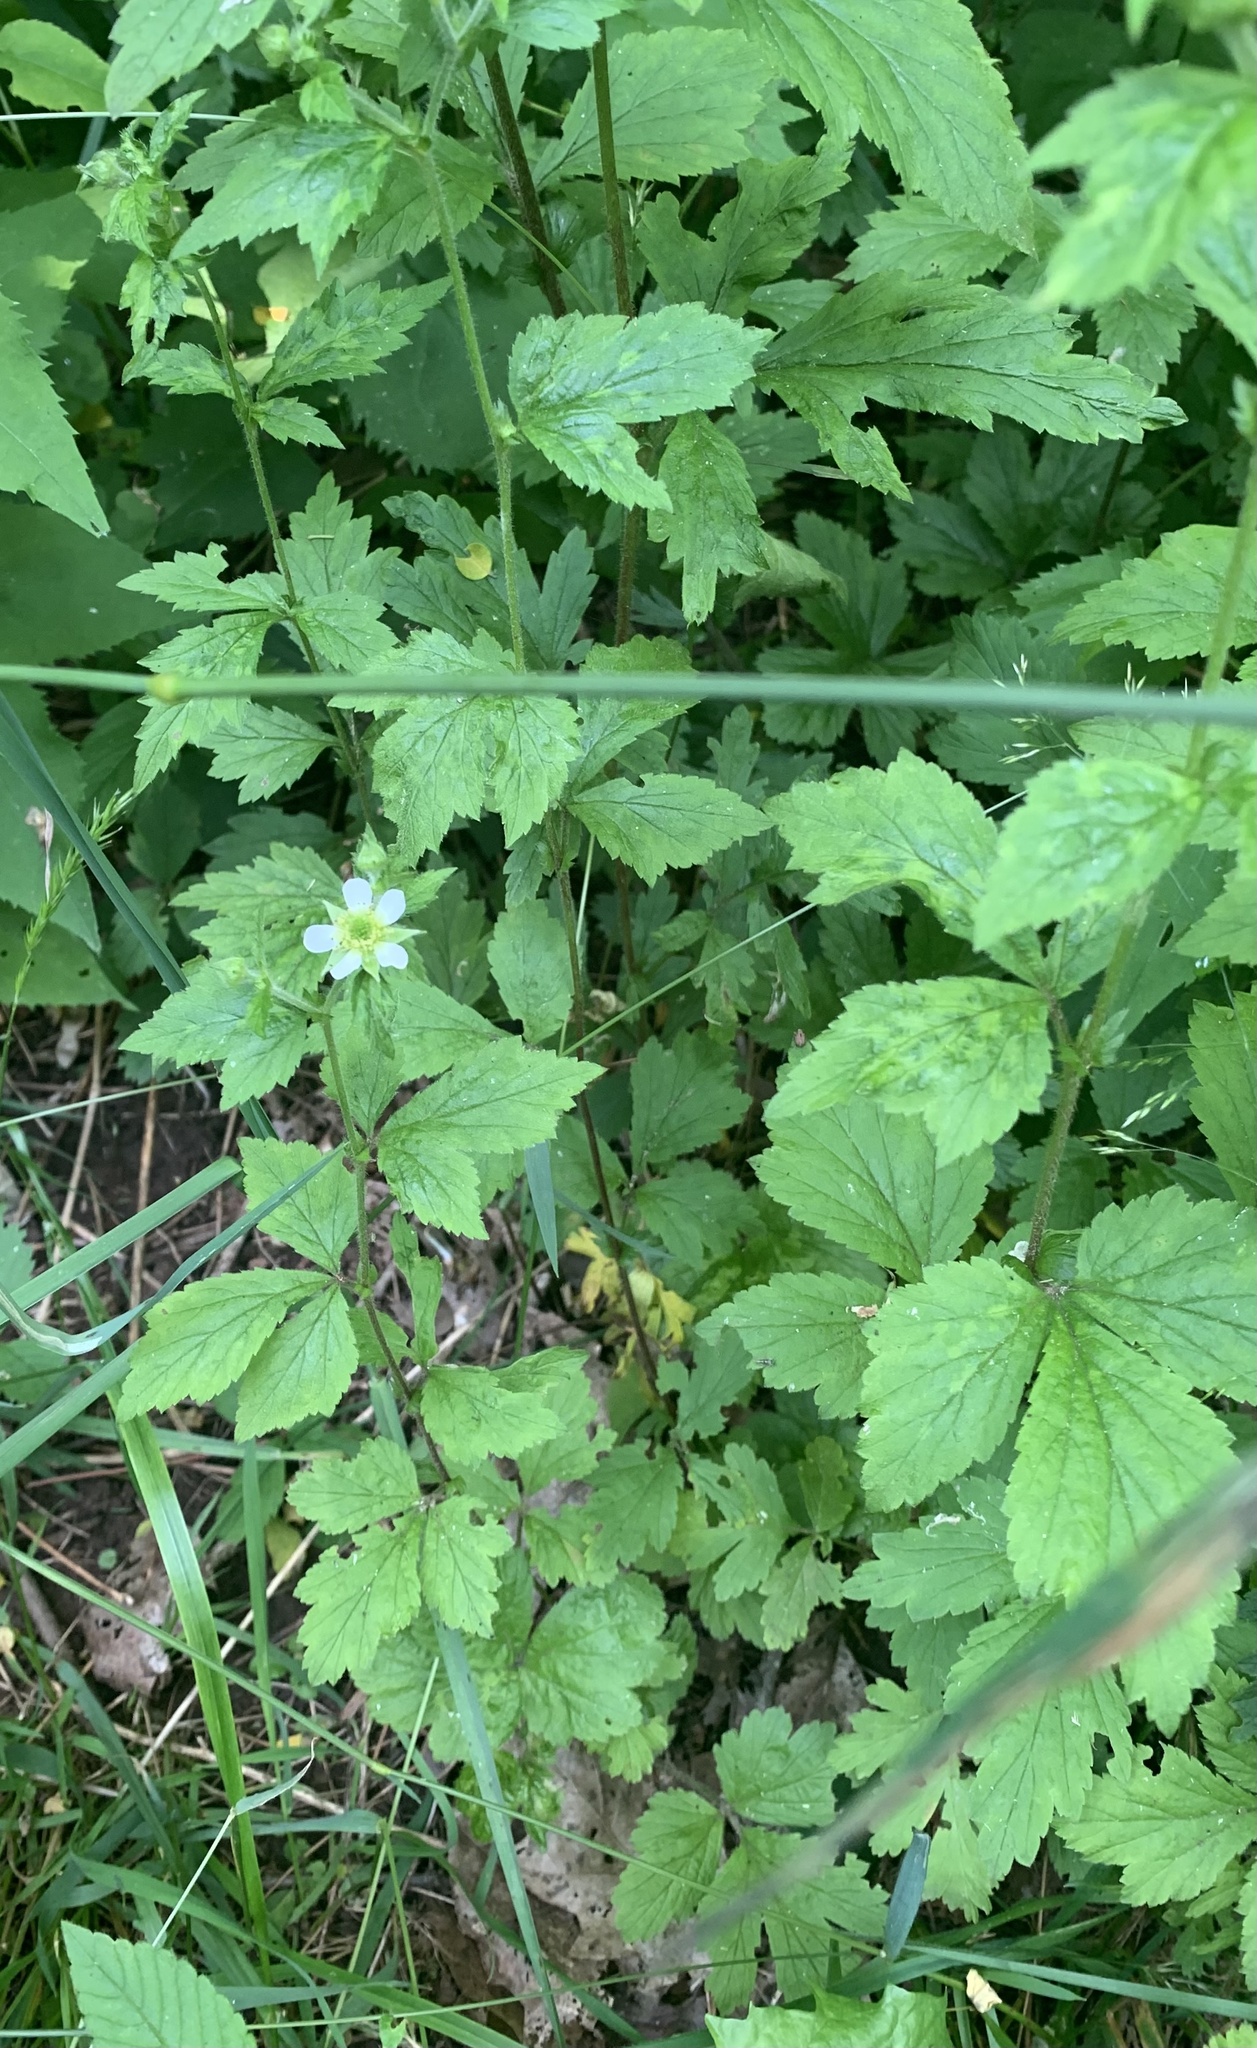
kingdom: Plantae
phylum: Tracheophyta
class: Magnoliopsida
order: Rosales
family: Rosaceae
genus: Geum
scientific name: Geum canadense
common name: White avens
